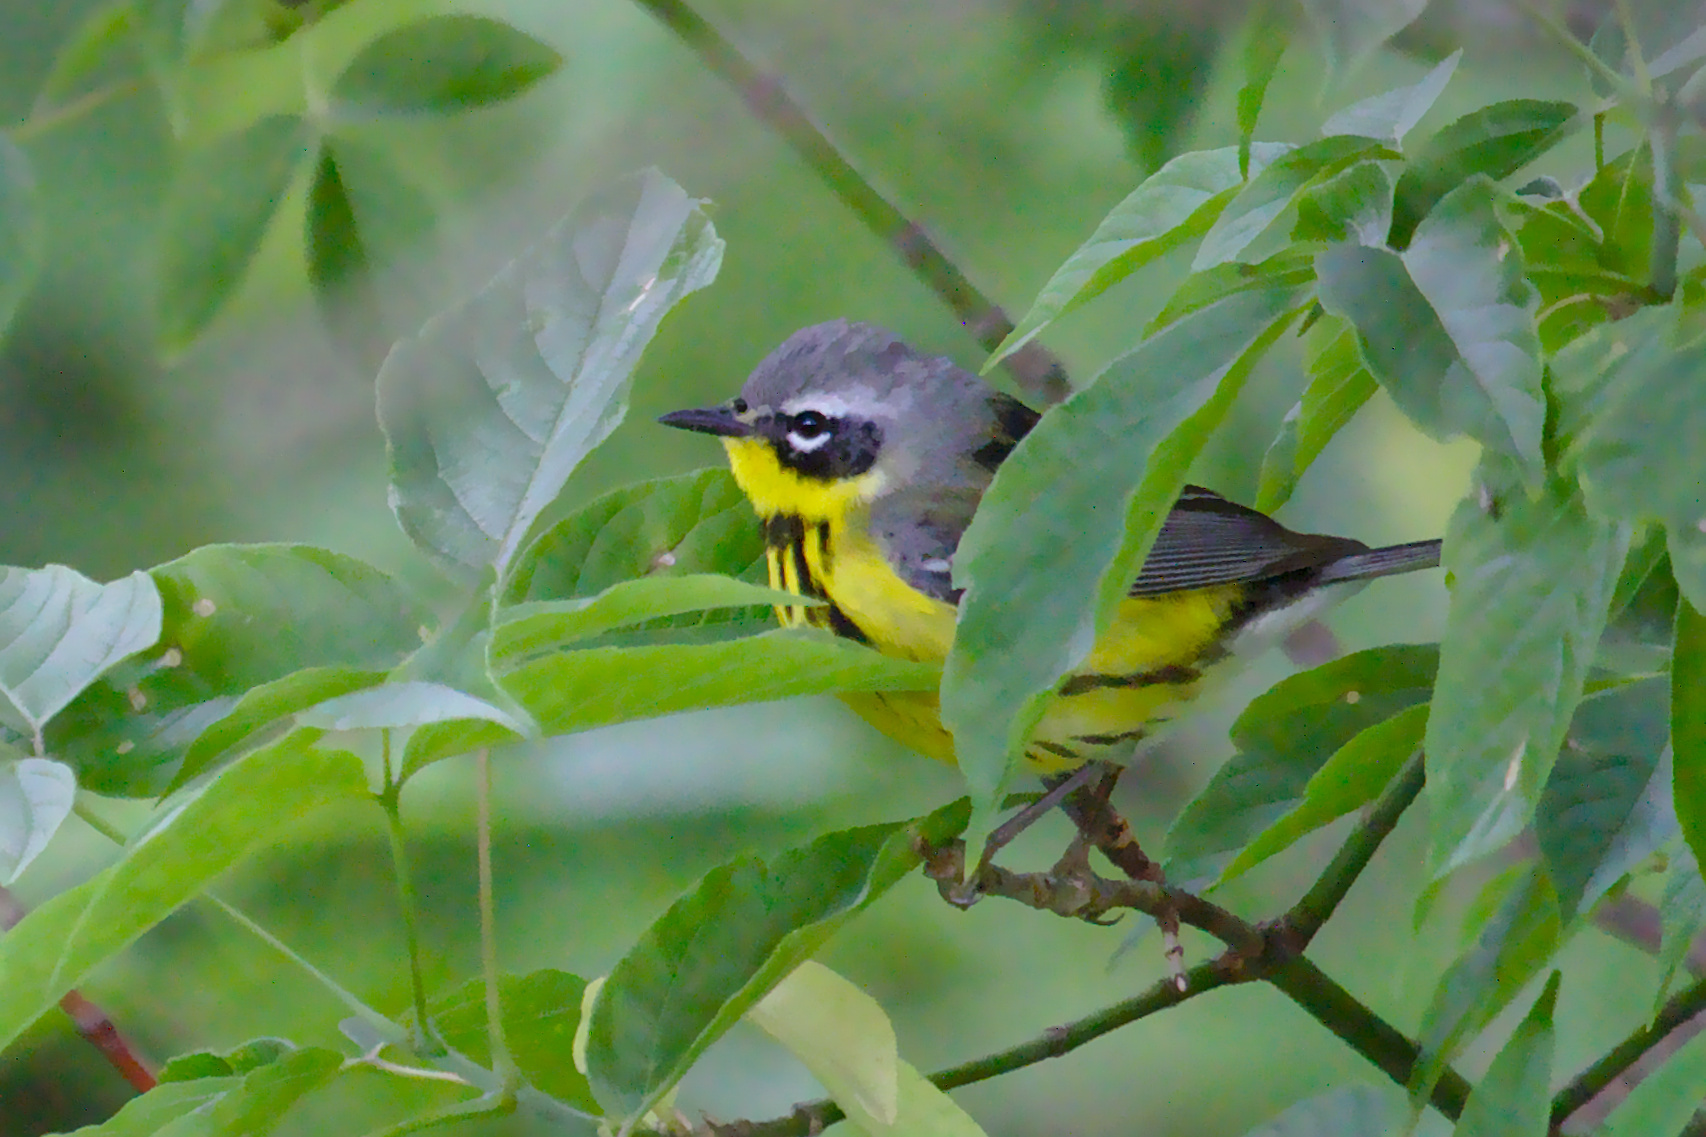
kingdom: Animalia
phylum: Chordata
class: Aves
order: Passeriformes
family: Parulidae
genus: Setophaga
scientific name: Setophaga magnolia
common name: Magnolia warbler
